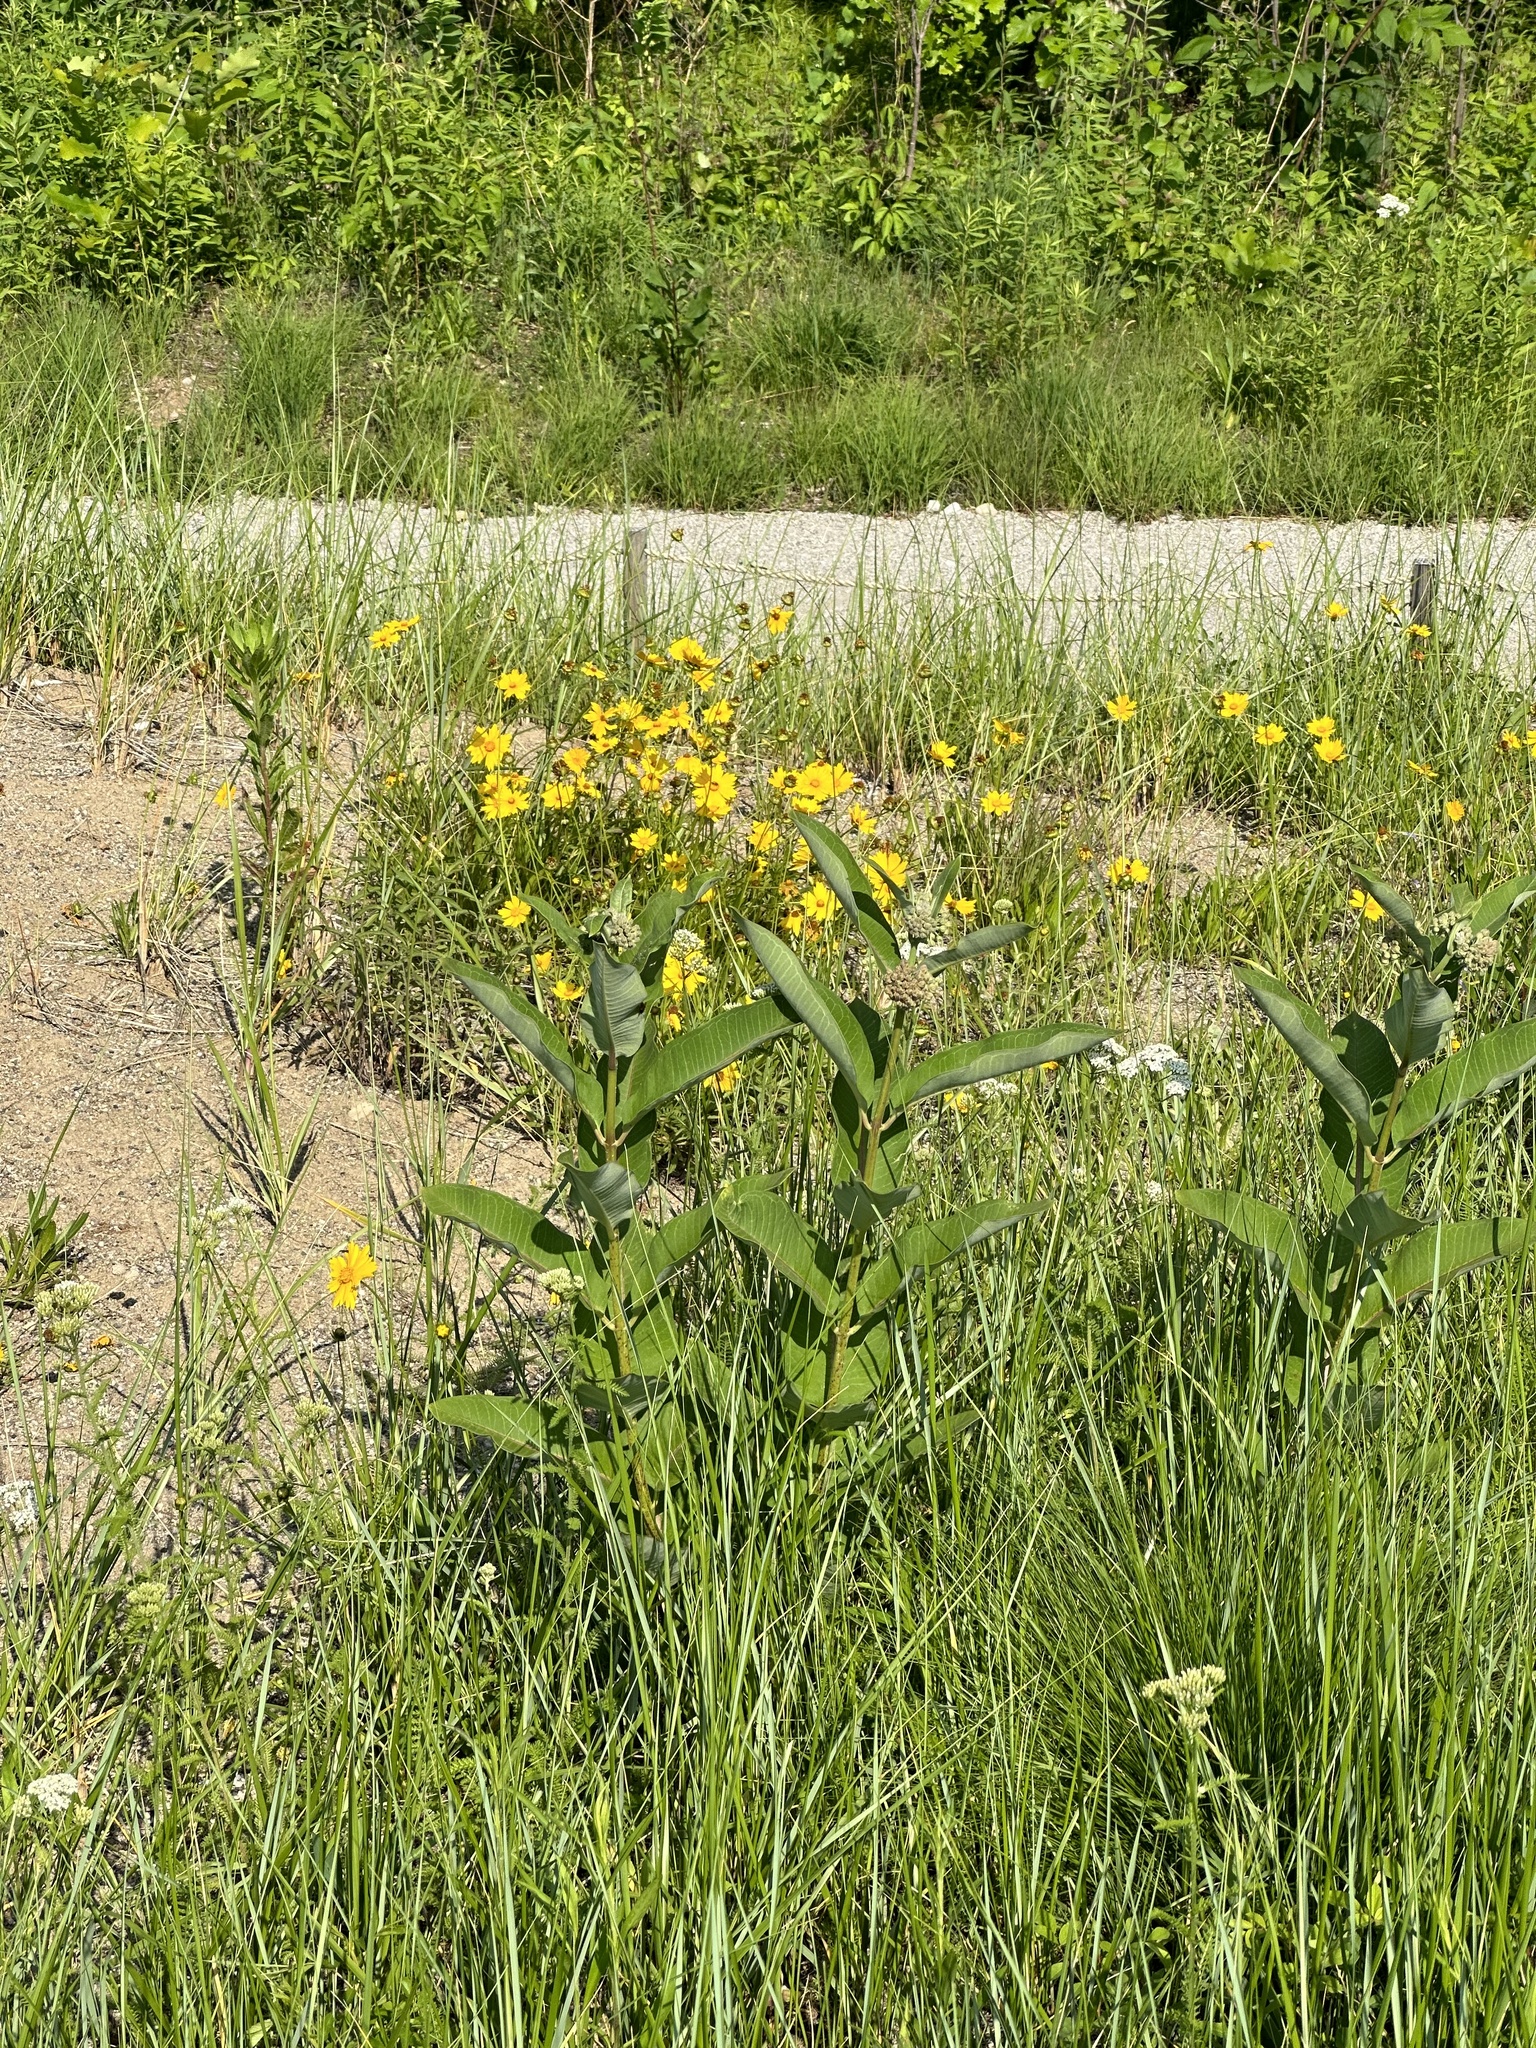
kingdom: Plantae
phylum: Tracheophyta
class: Magnoliopsida
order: Gentianales
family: Apocynaceae
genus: Asclepias
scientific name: Asclepias syriaca
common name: Common milkweed
